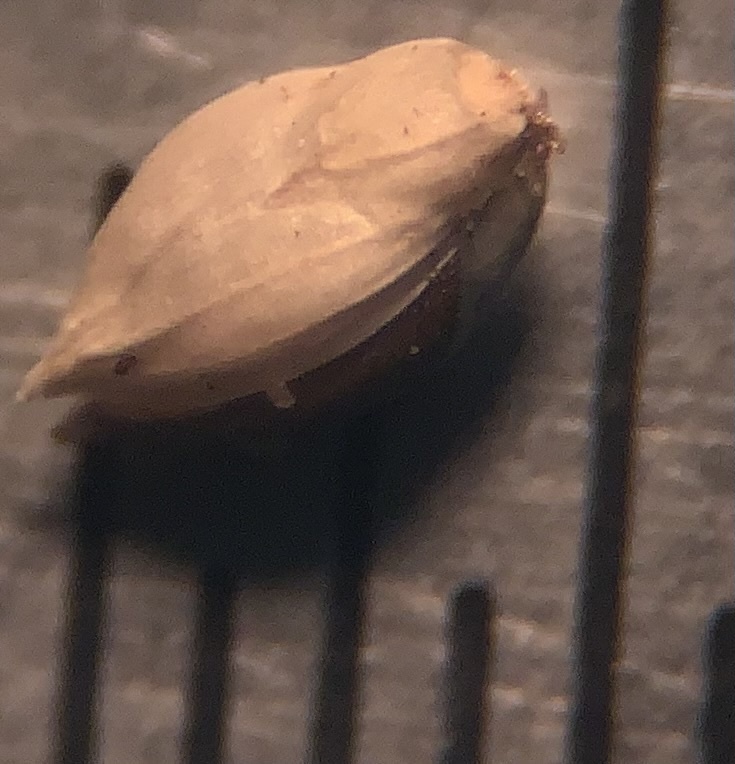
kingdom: Plantae
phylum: Tracheophyta
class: Liliopsida
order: Poales
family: Poaceae
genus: Setaria
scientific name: Setaria parviflora
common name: Knotroot bristle-grass
